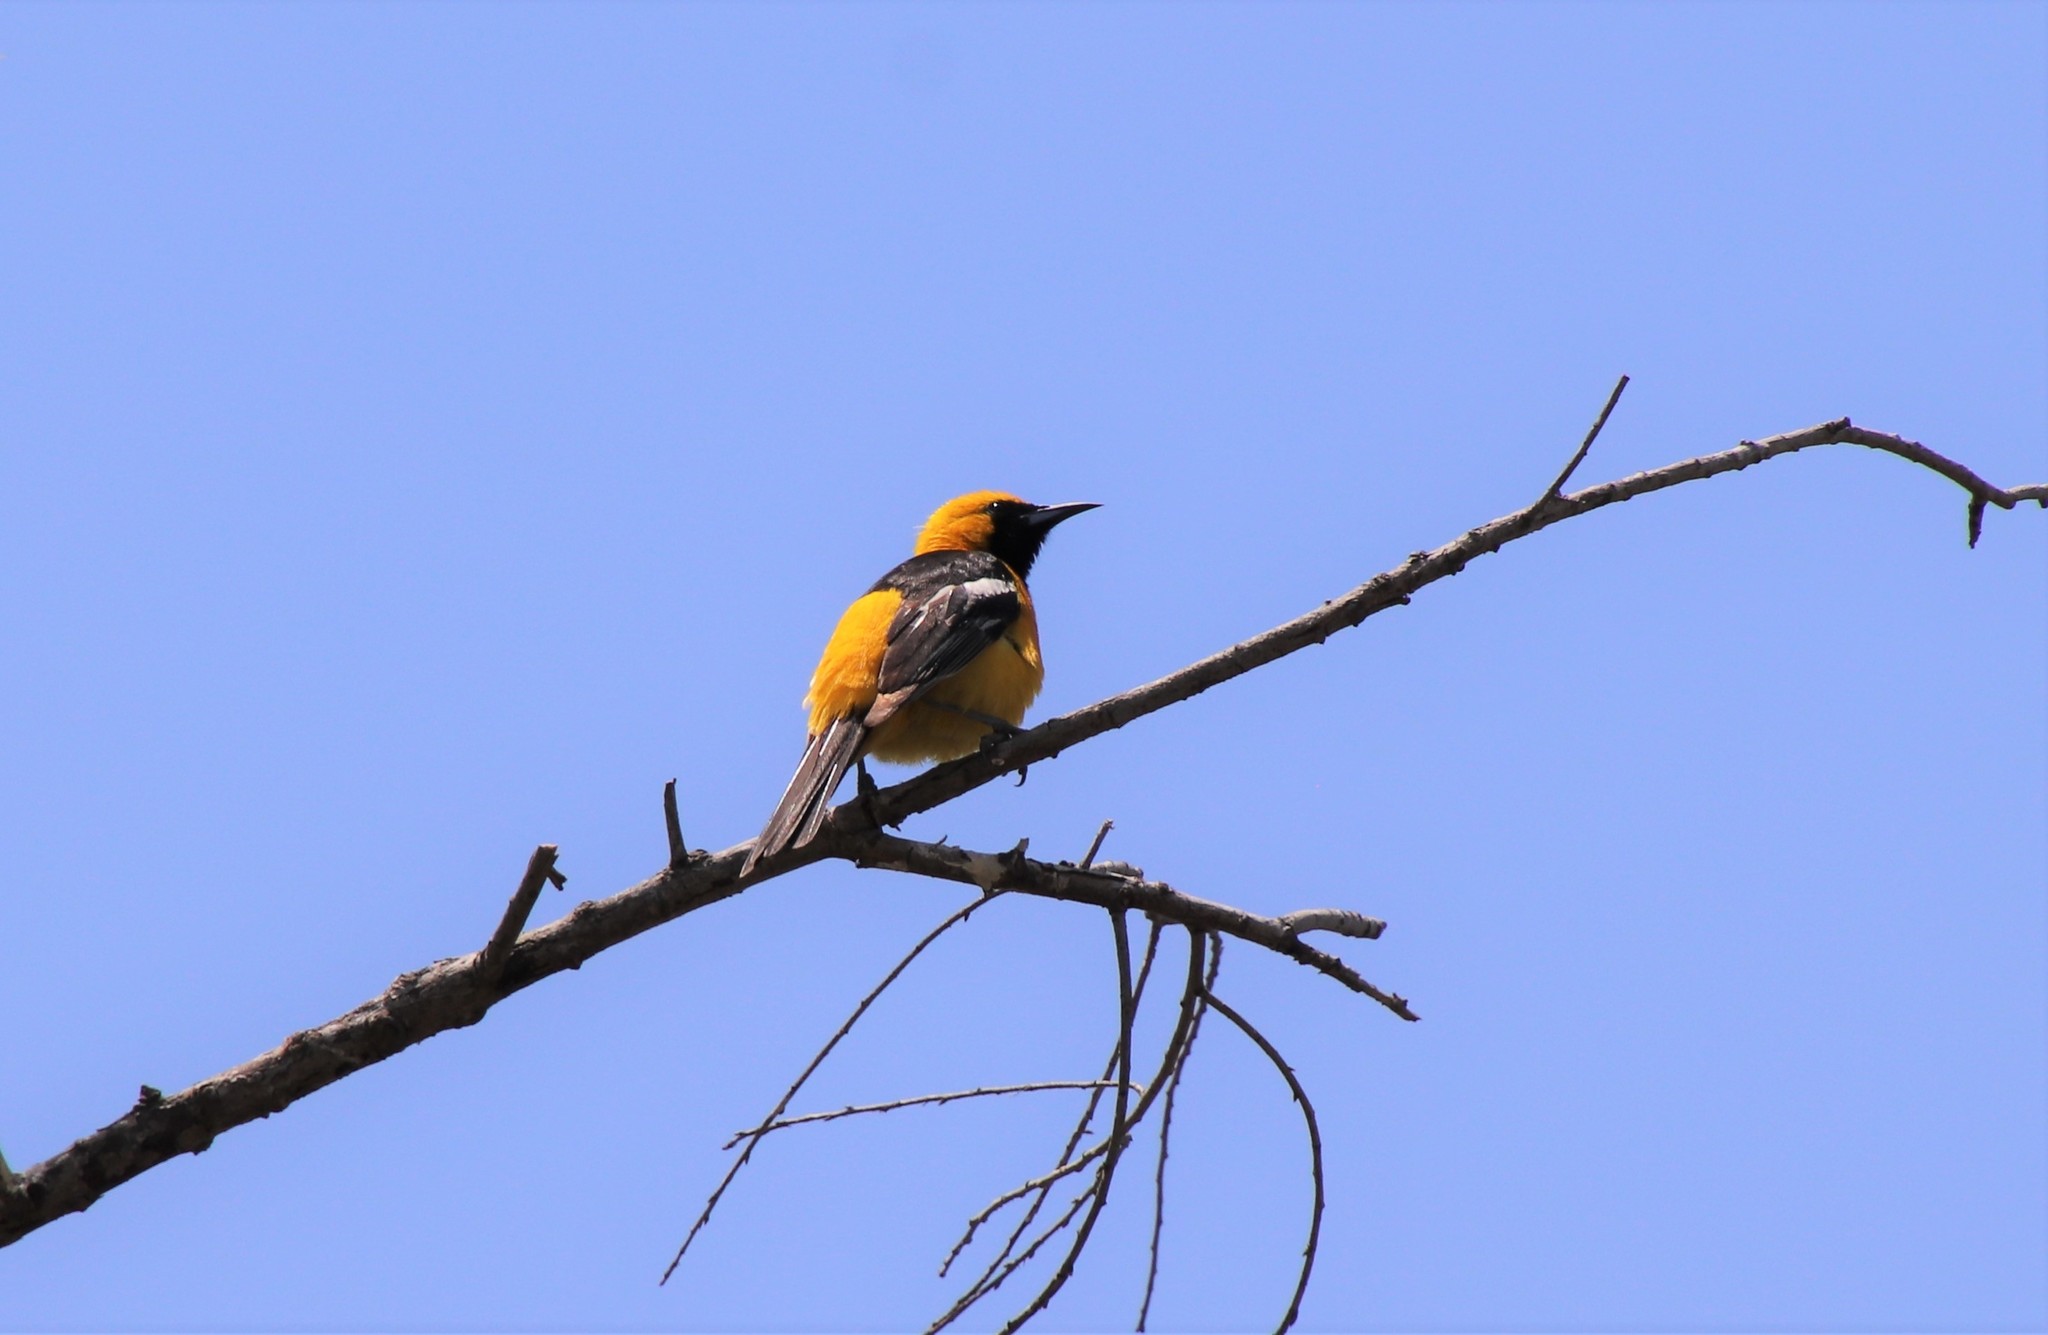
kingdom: Animalia
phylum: Chordata
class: Aves
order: Passeriformes
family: Icteridae
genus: Icterus
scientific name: Icterus cucullatus
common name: Hooded oriole
